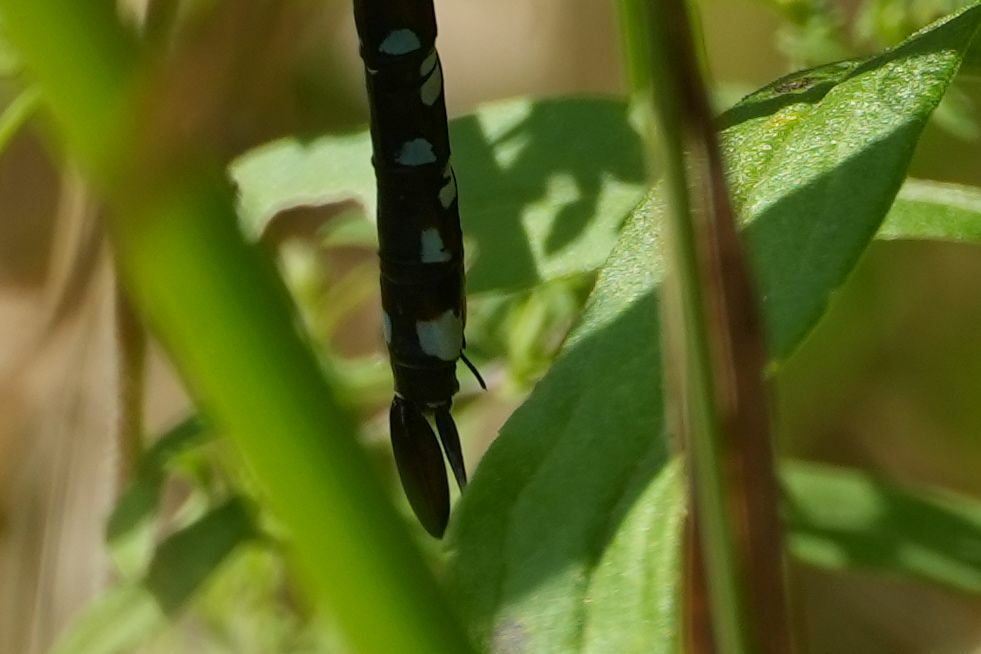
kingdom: Animalia
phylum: Arthropoda
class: Insecta
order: Odonata
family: Aeshnidae
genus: Aeshna
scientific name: Aeshna constricta
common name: Lance-tipped darner
